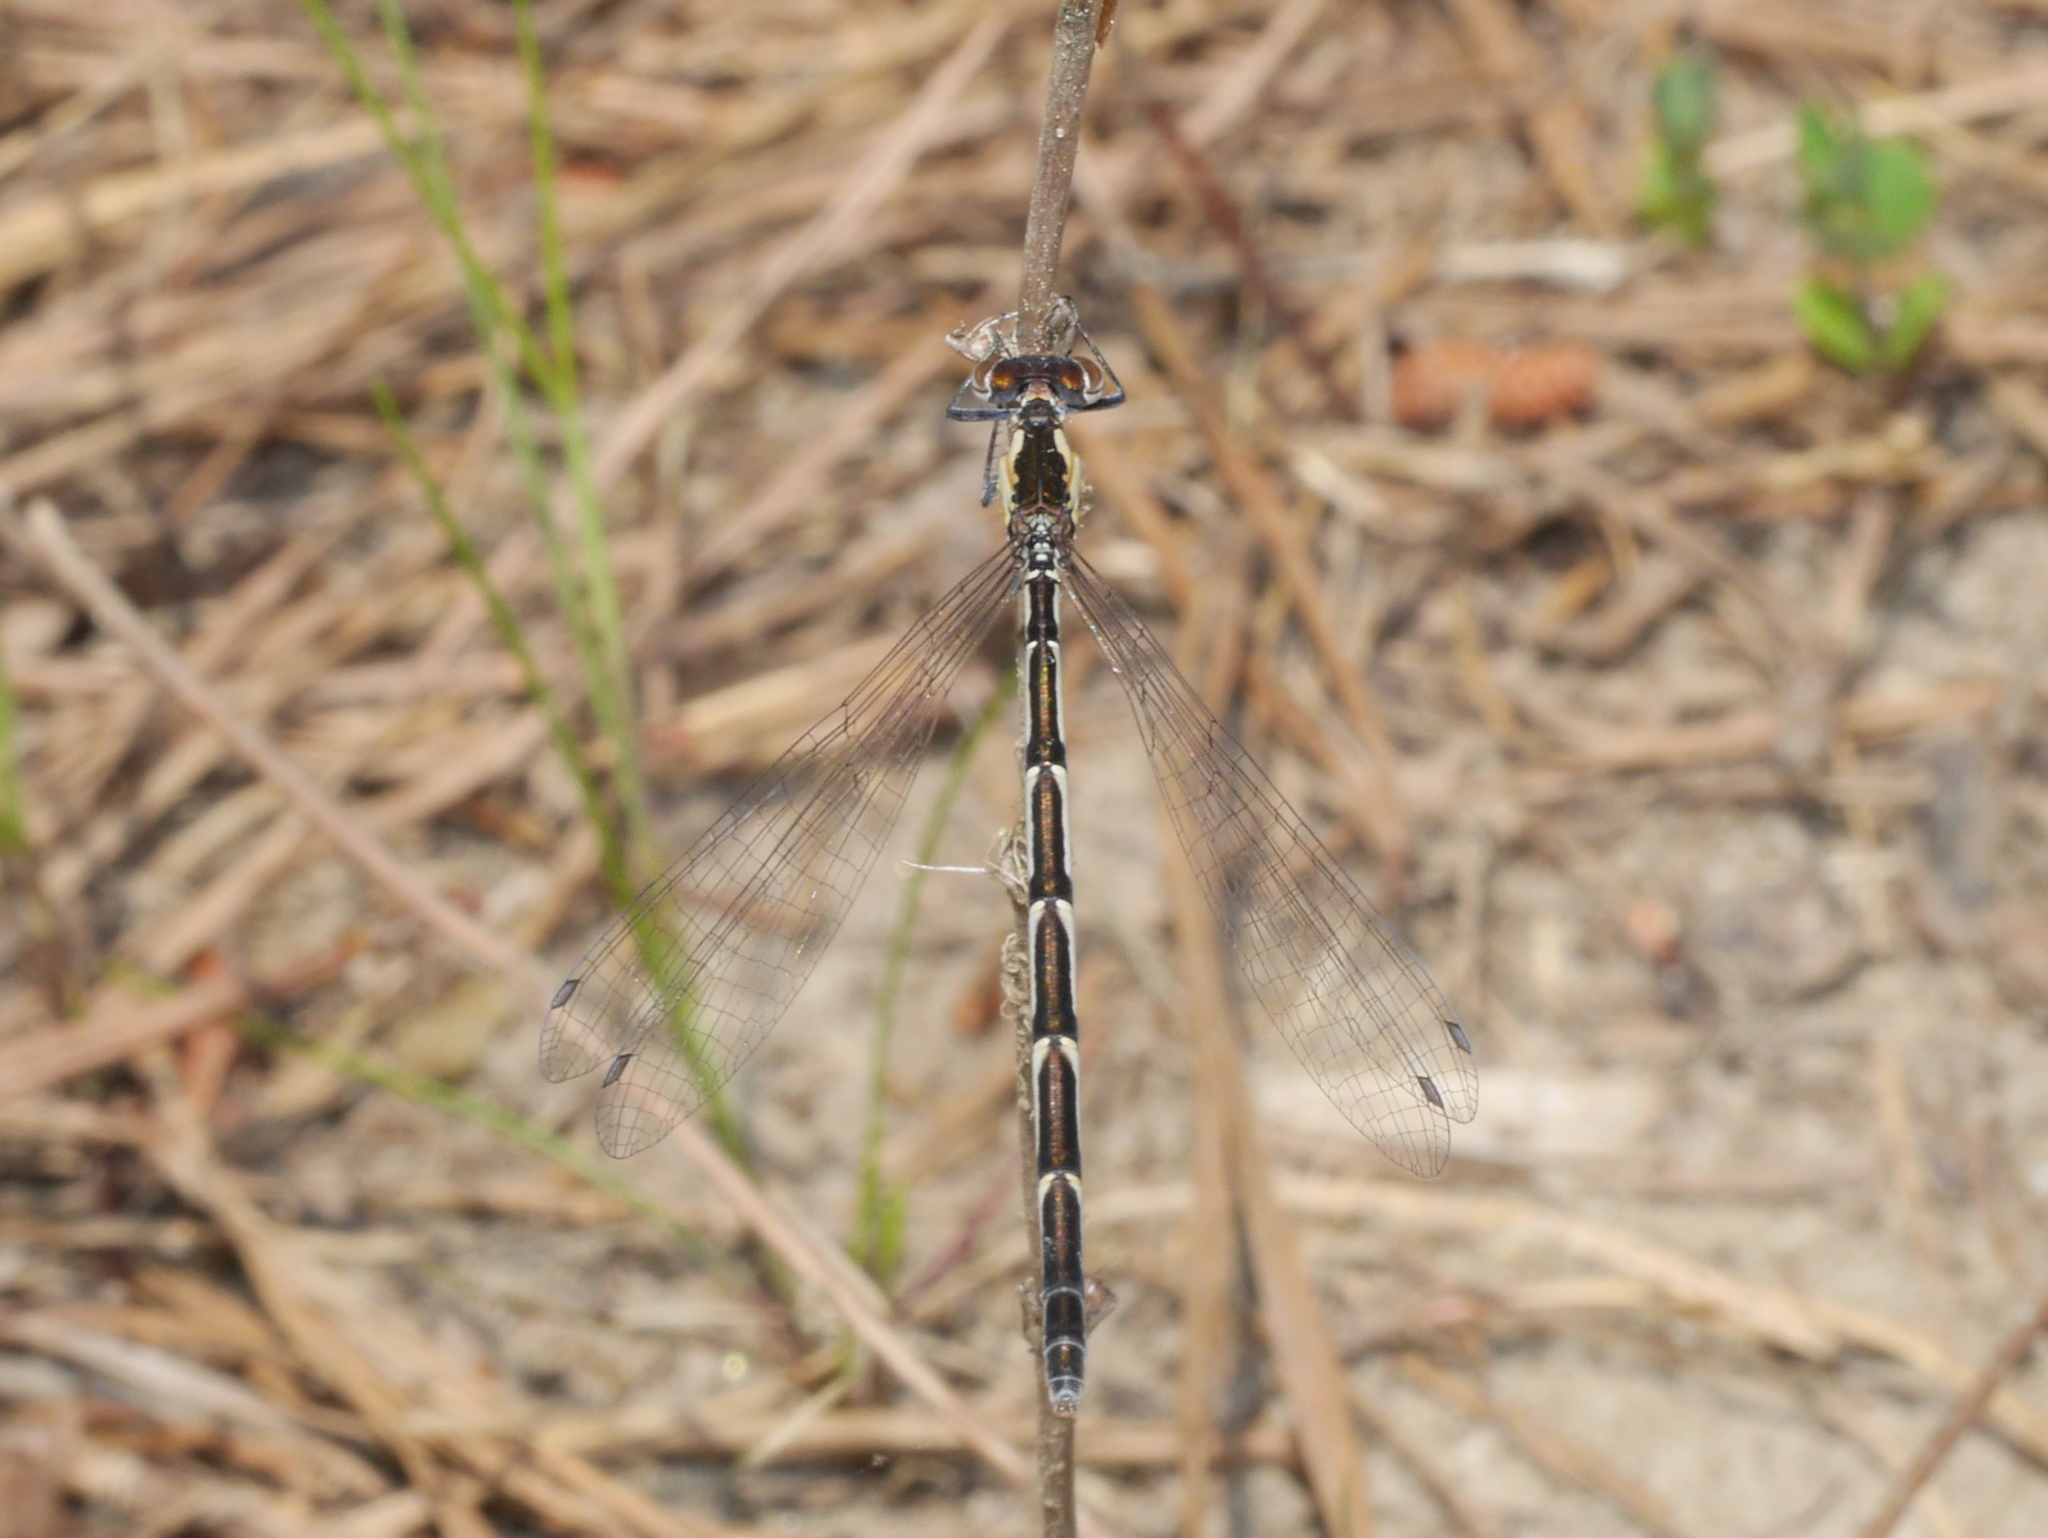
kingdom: Animalia
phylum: Arthropoda
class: Insecta
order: Odonata
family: Coenagrionidae
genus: Chromagrion
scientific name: Chromagrion conditum
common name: Aurora damsel
